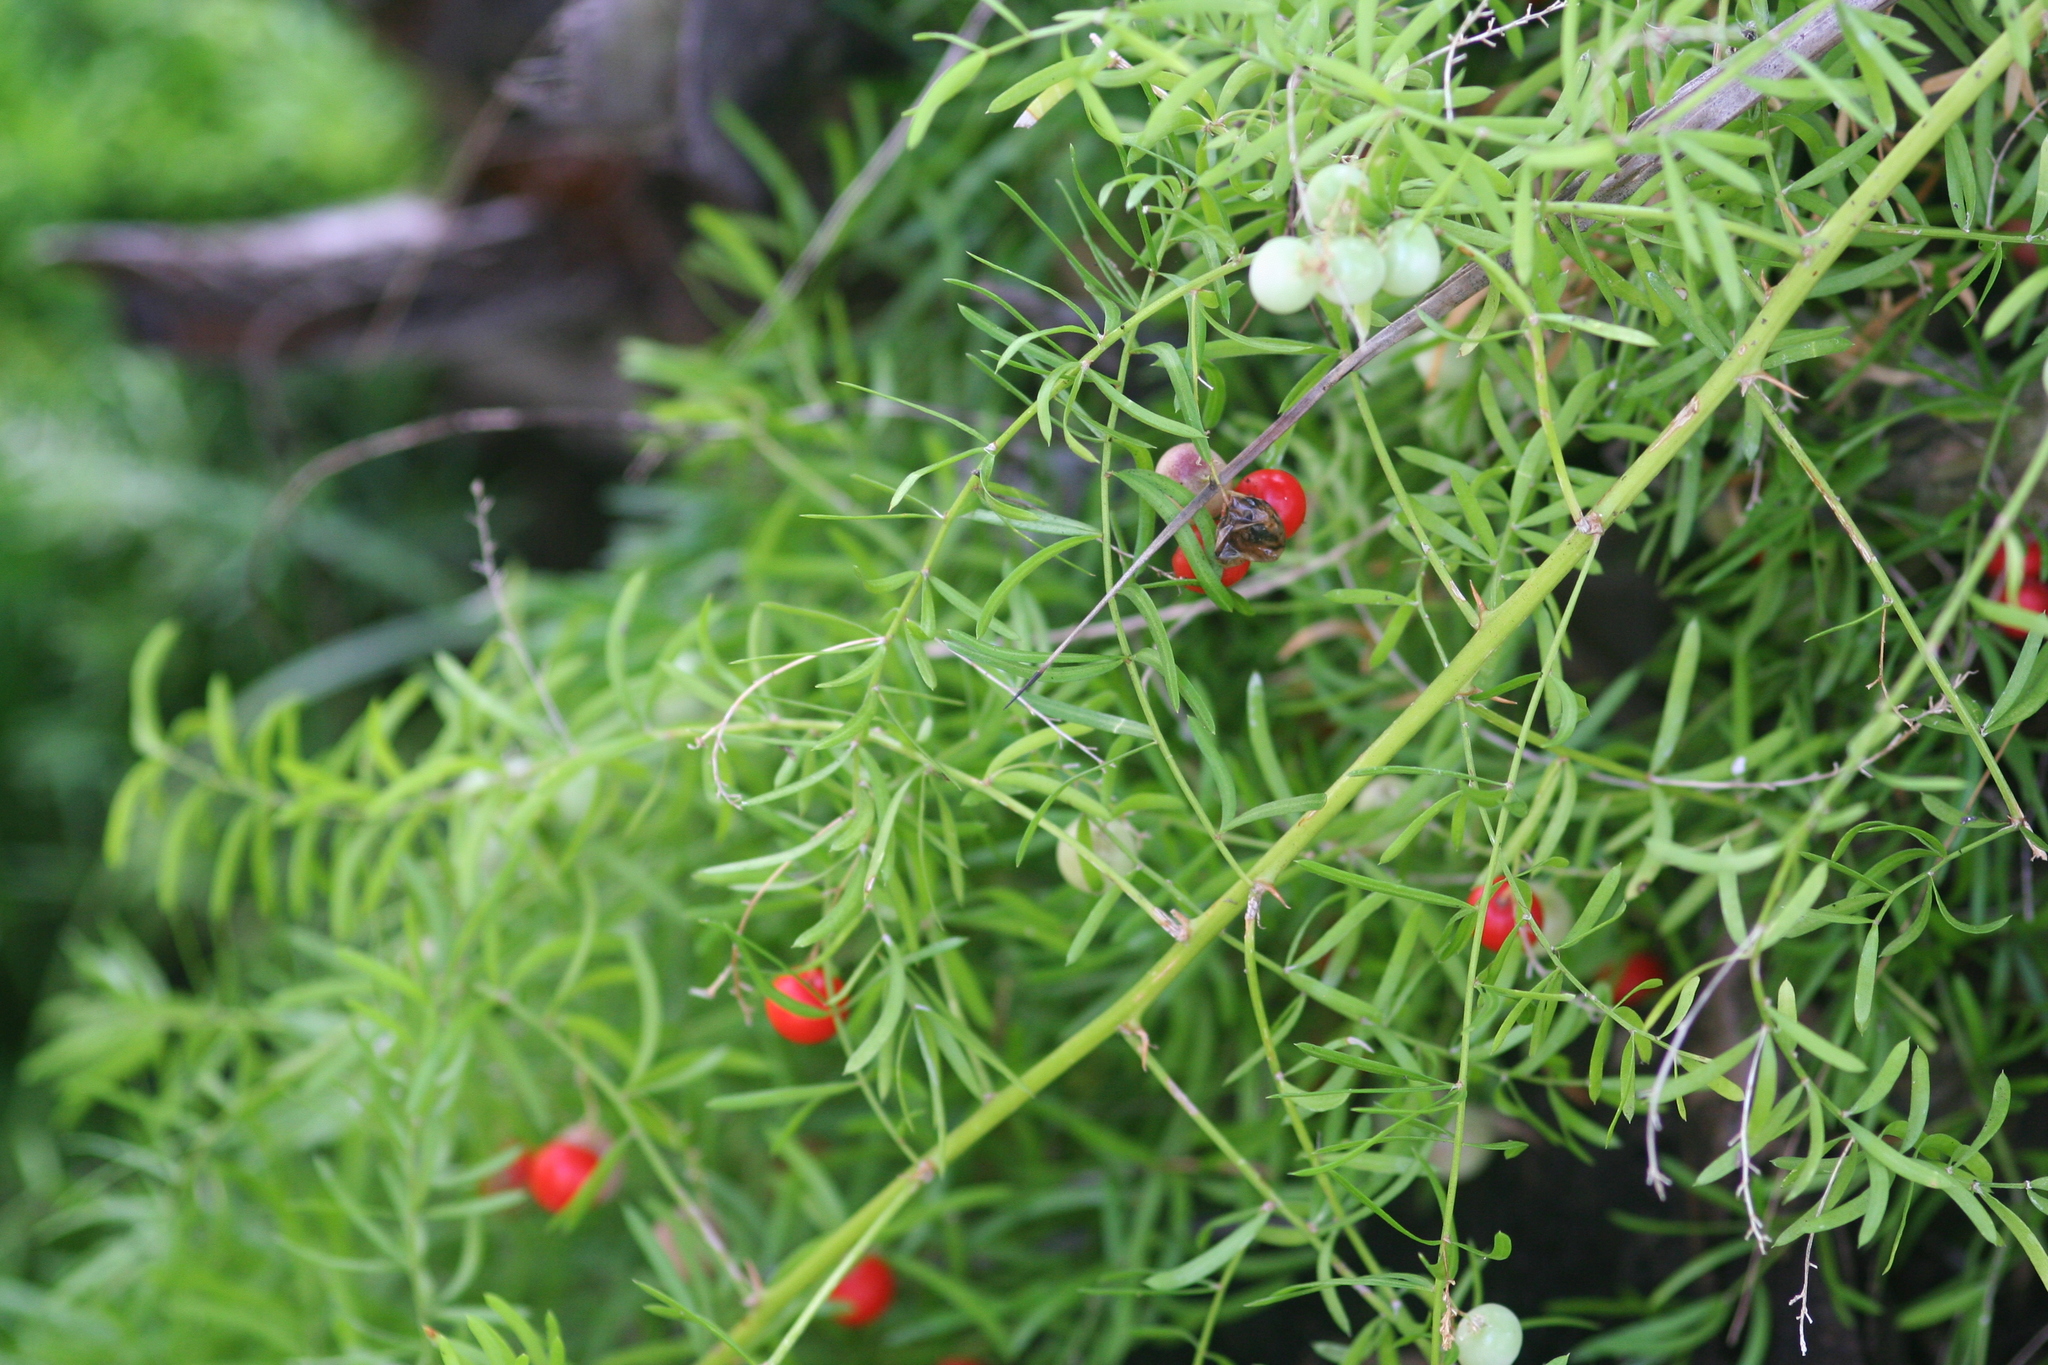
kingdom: Plantae
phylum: Tracheophyta
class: Liliopsida
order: Asparagales
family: Asparagaceae
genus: Asparagus
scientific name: Asparagus aethiopicus
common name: Sprenger's asparagus fern
